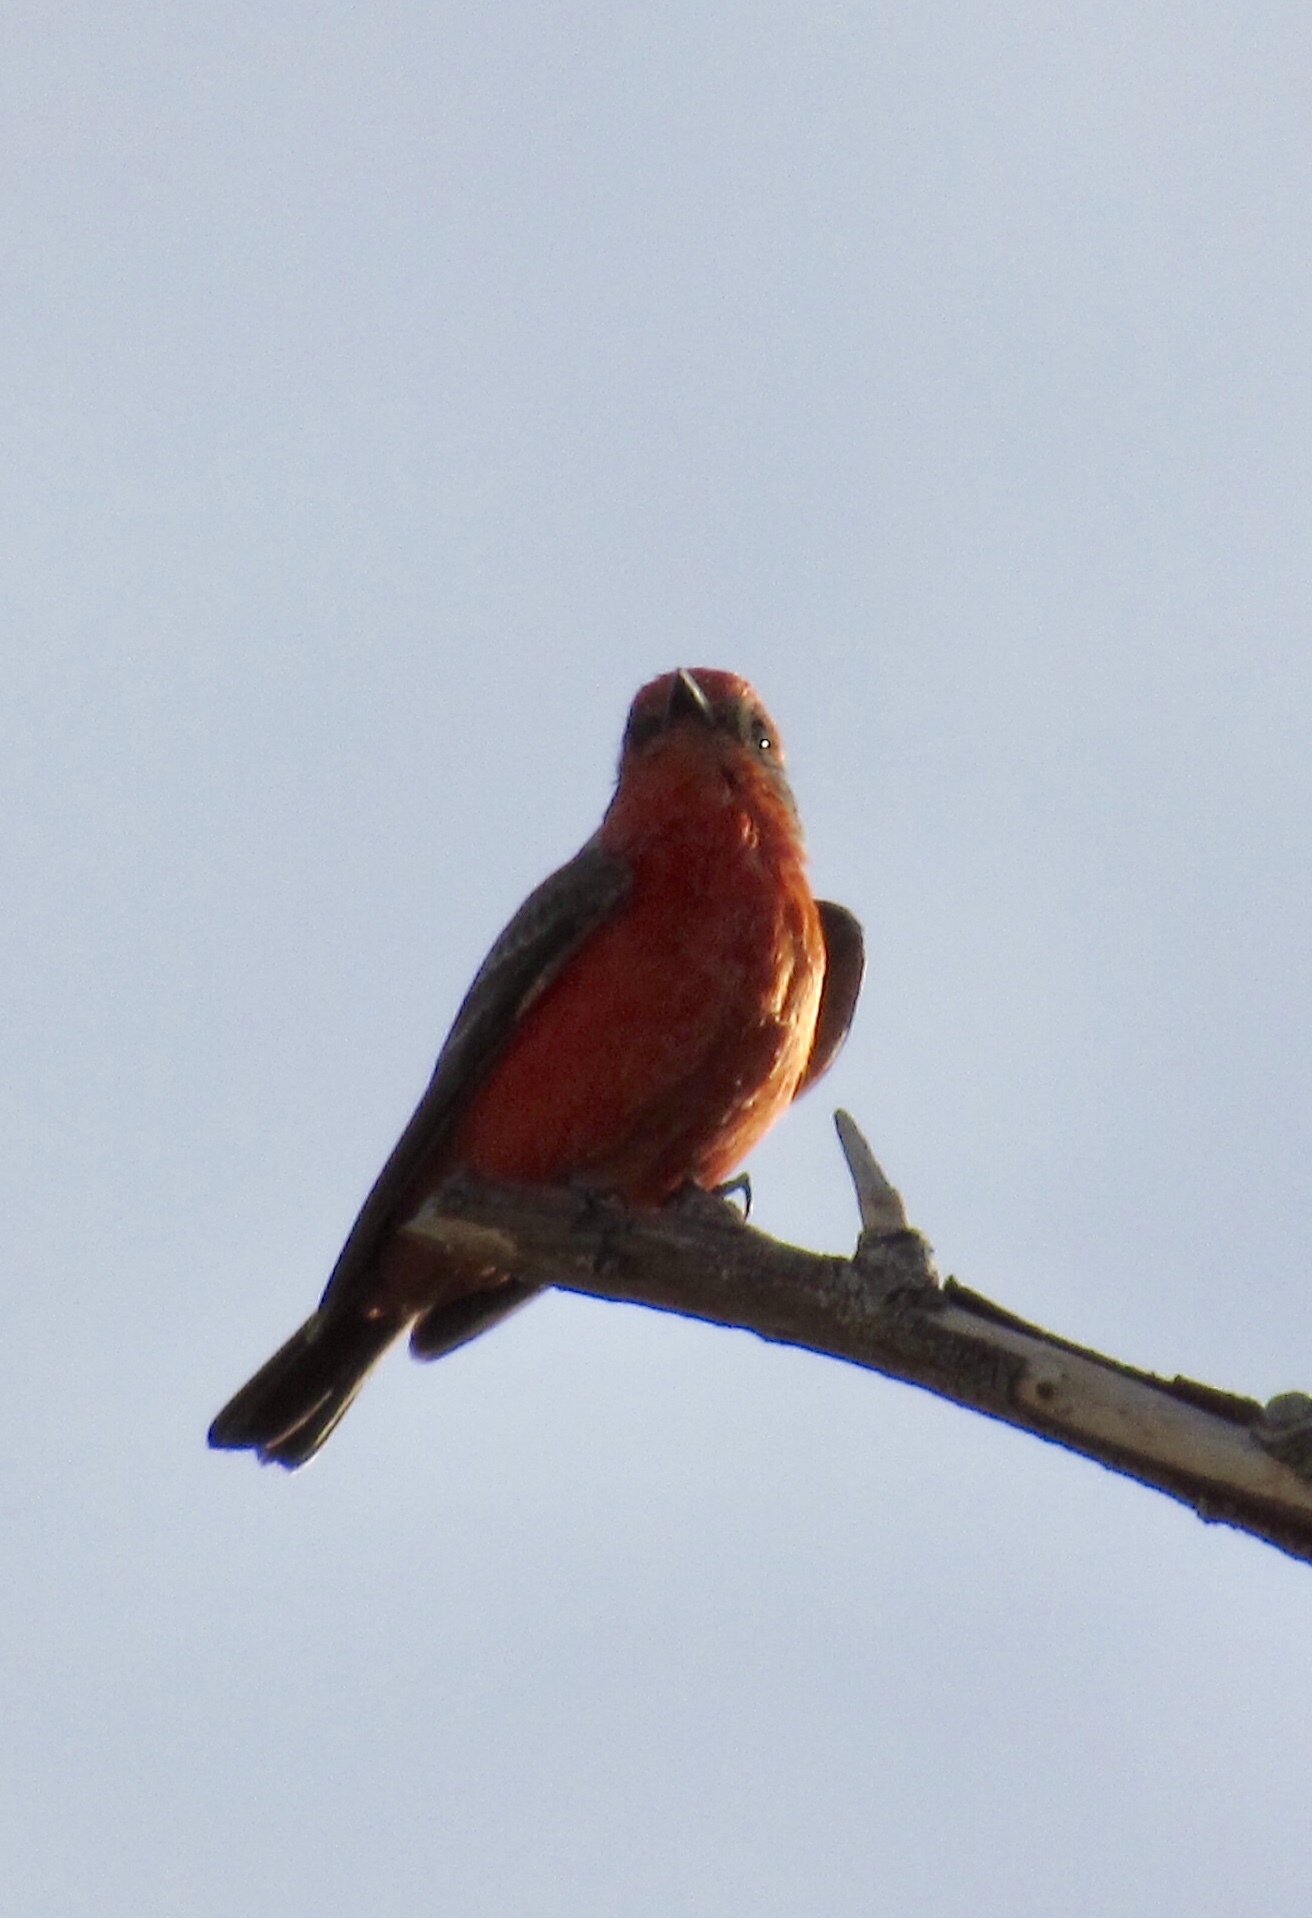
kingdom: Animalia
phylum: Chordata
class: Aves
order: Passeriformes
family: Tyrannidae
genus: Pyrocephalus
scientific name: Pyrocephalus rubinus
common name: Vermilion flycatcher
